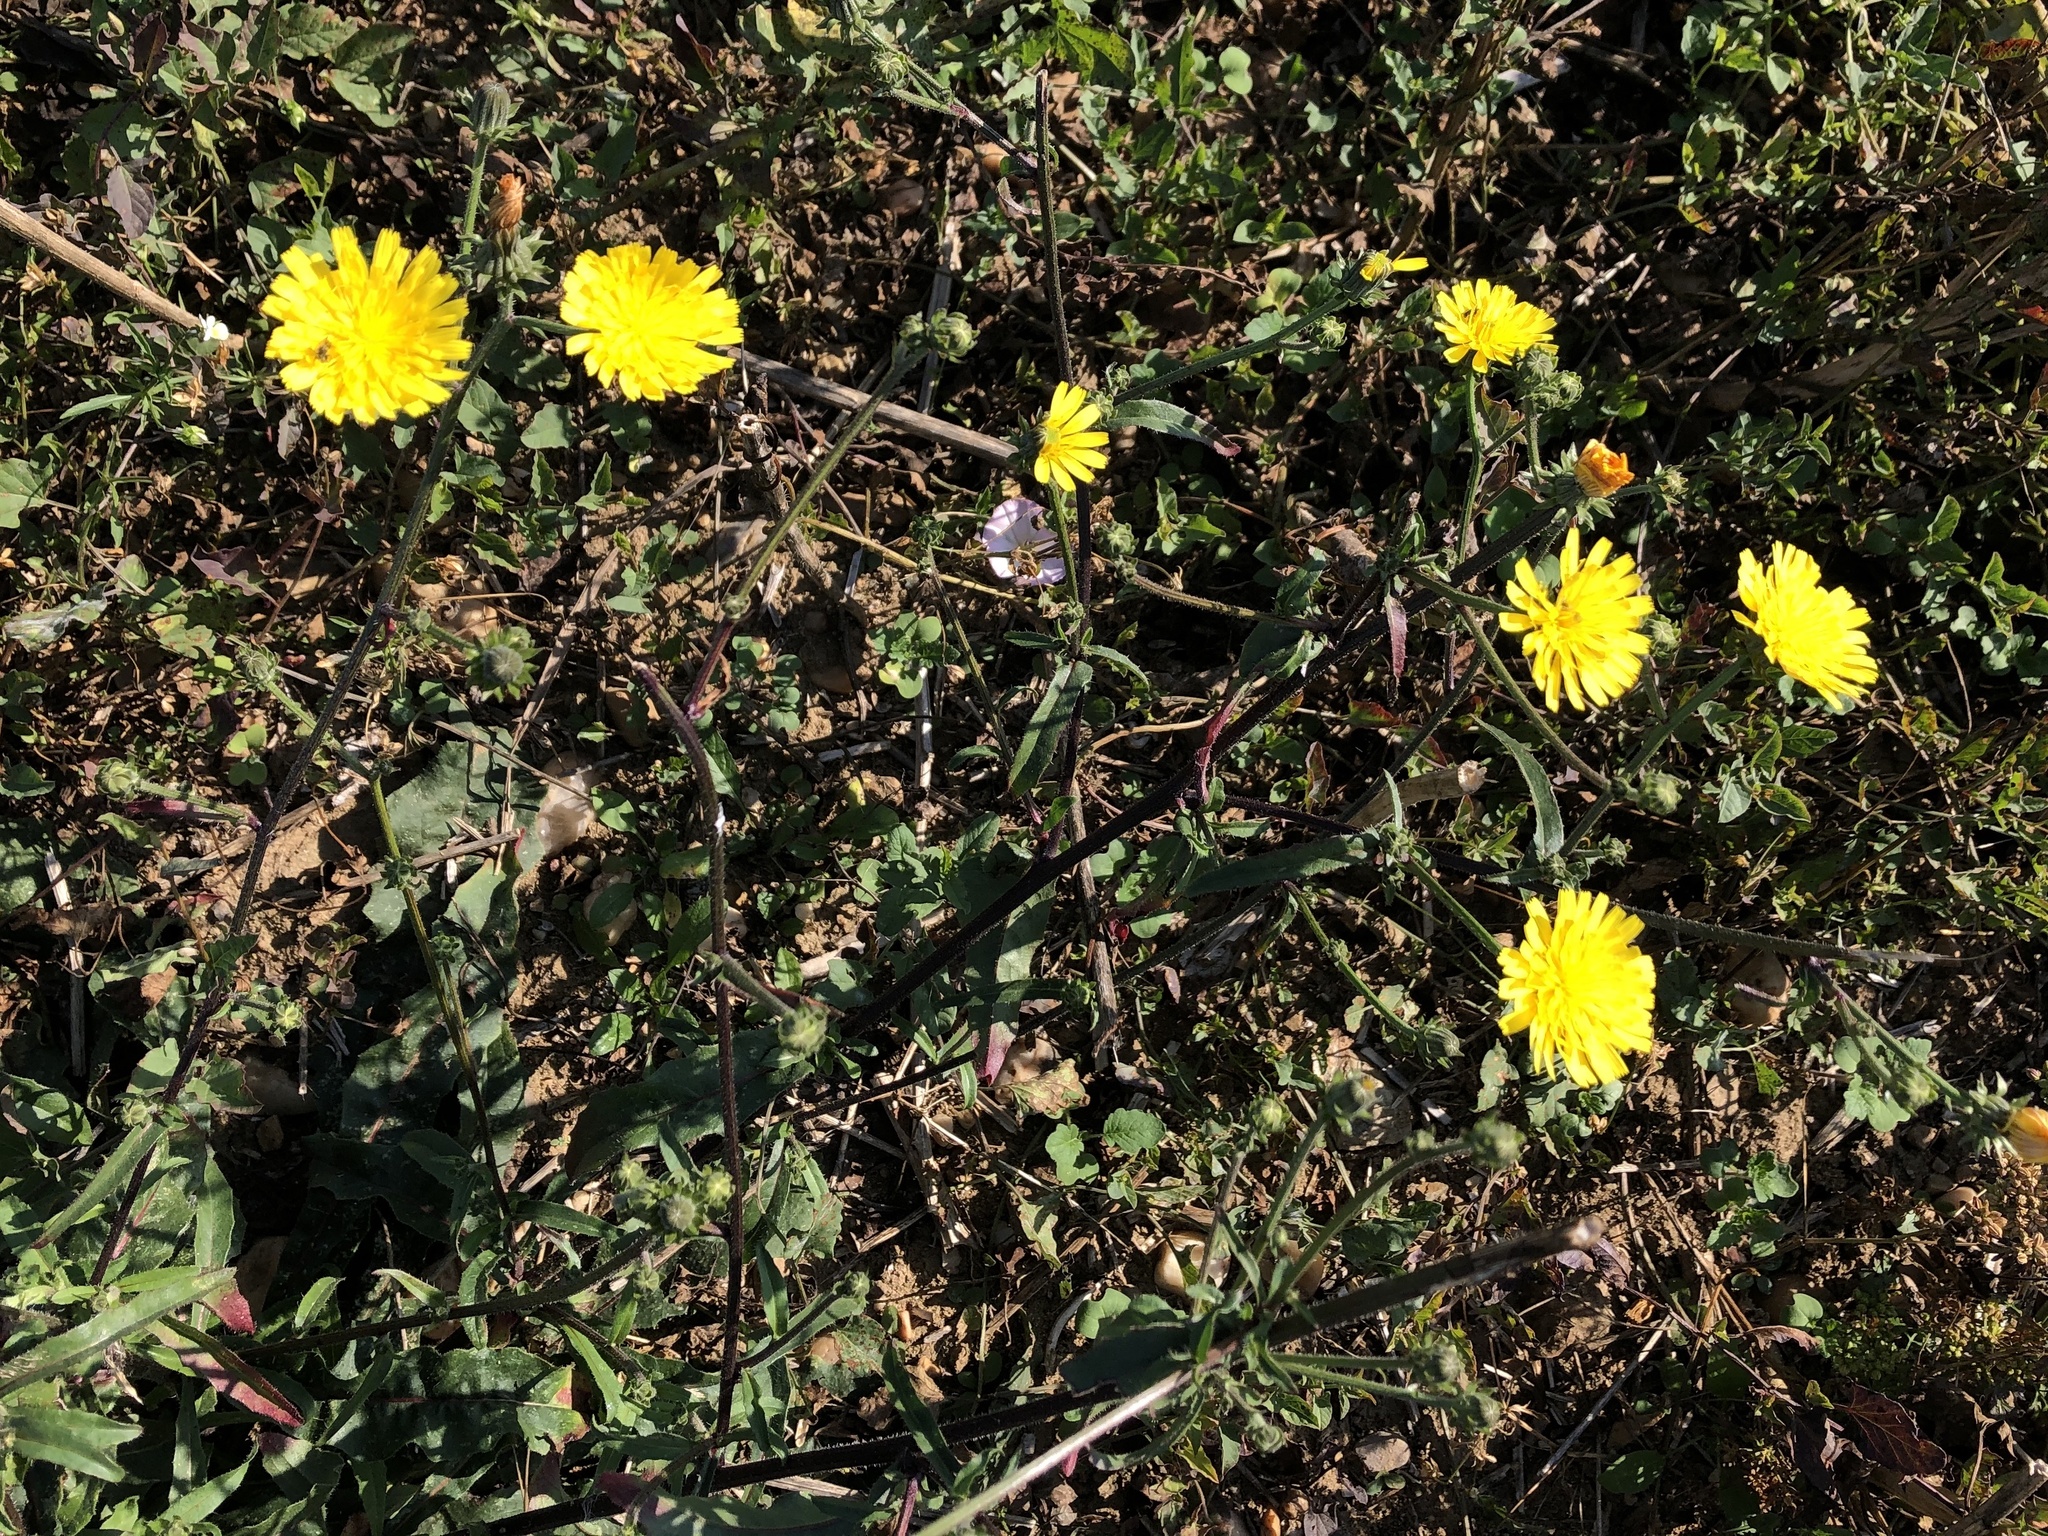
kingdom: Plantae
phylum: Tracheophyta
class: Magnoliopsida
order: Asterales
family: Asteraceae
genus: Picris
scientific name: Picris hieracioides
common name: Hawkweed oxtongue
